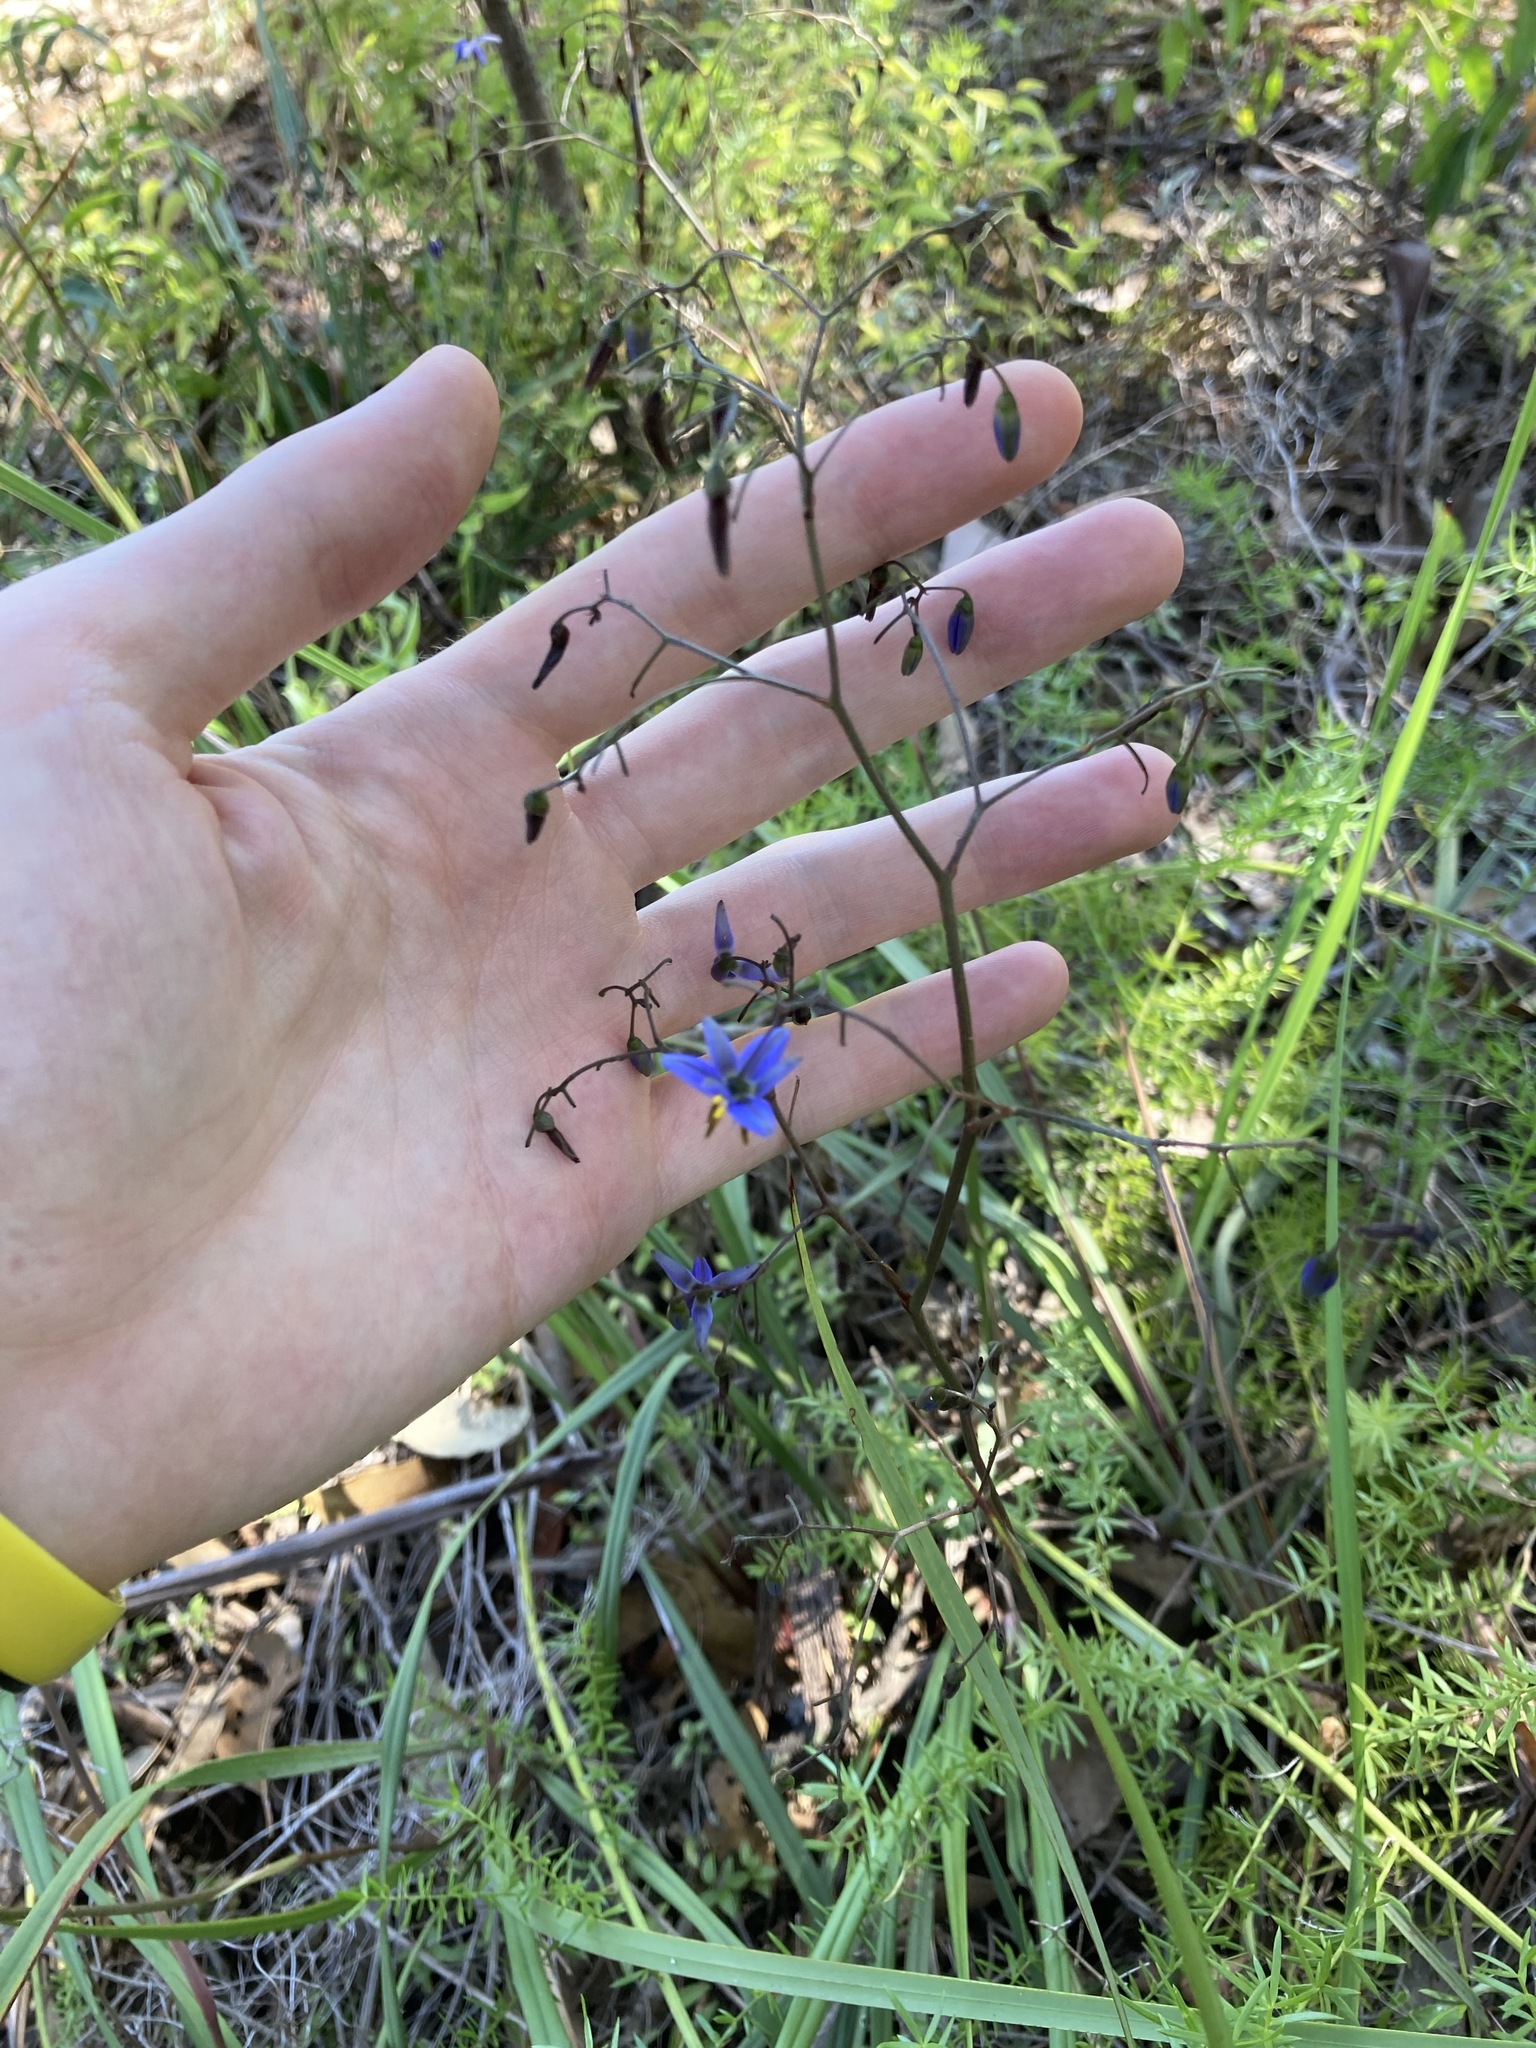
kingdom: Plantae
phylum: Tracheophyta
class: Liliopsida
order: Asparagales
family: Asphodelaceae
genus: Dianella
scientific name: Dianella revoluta
